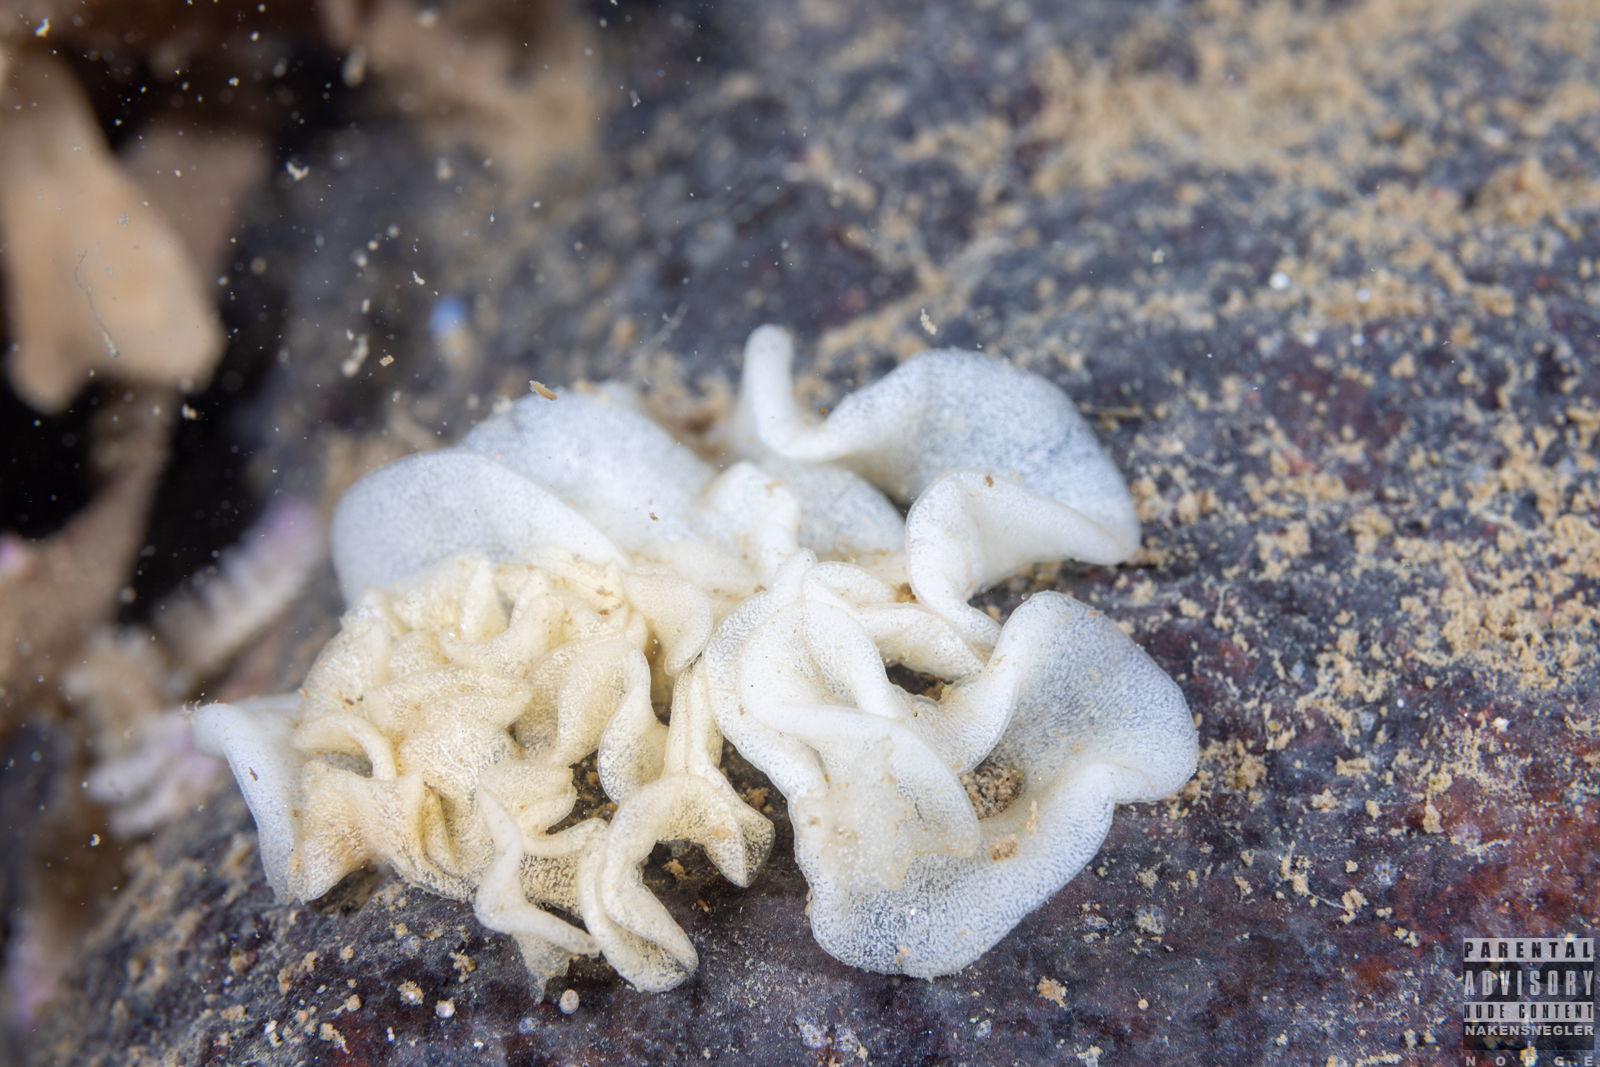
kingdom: Animalia
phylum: Mollusca
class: Gastropoda
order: Nudibranchia
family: Onchidorididae
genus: Acanthodoris
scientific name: Acanthodoris pilosa
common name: Hairy spiny doris
